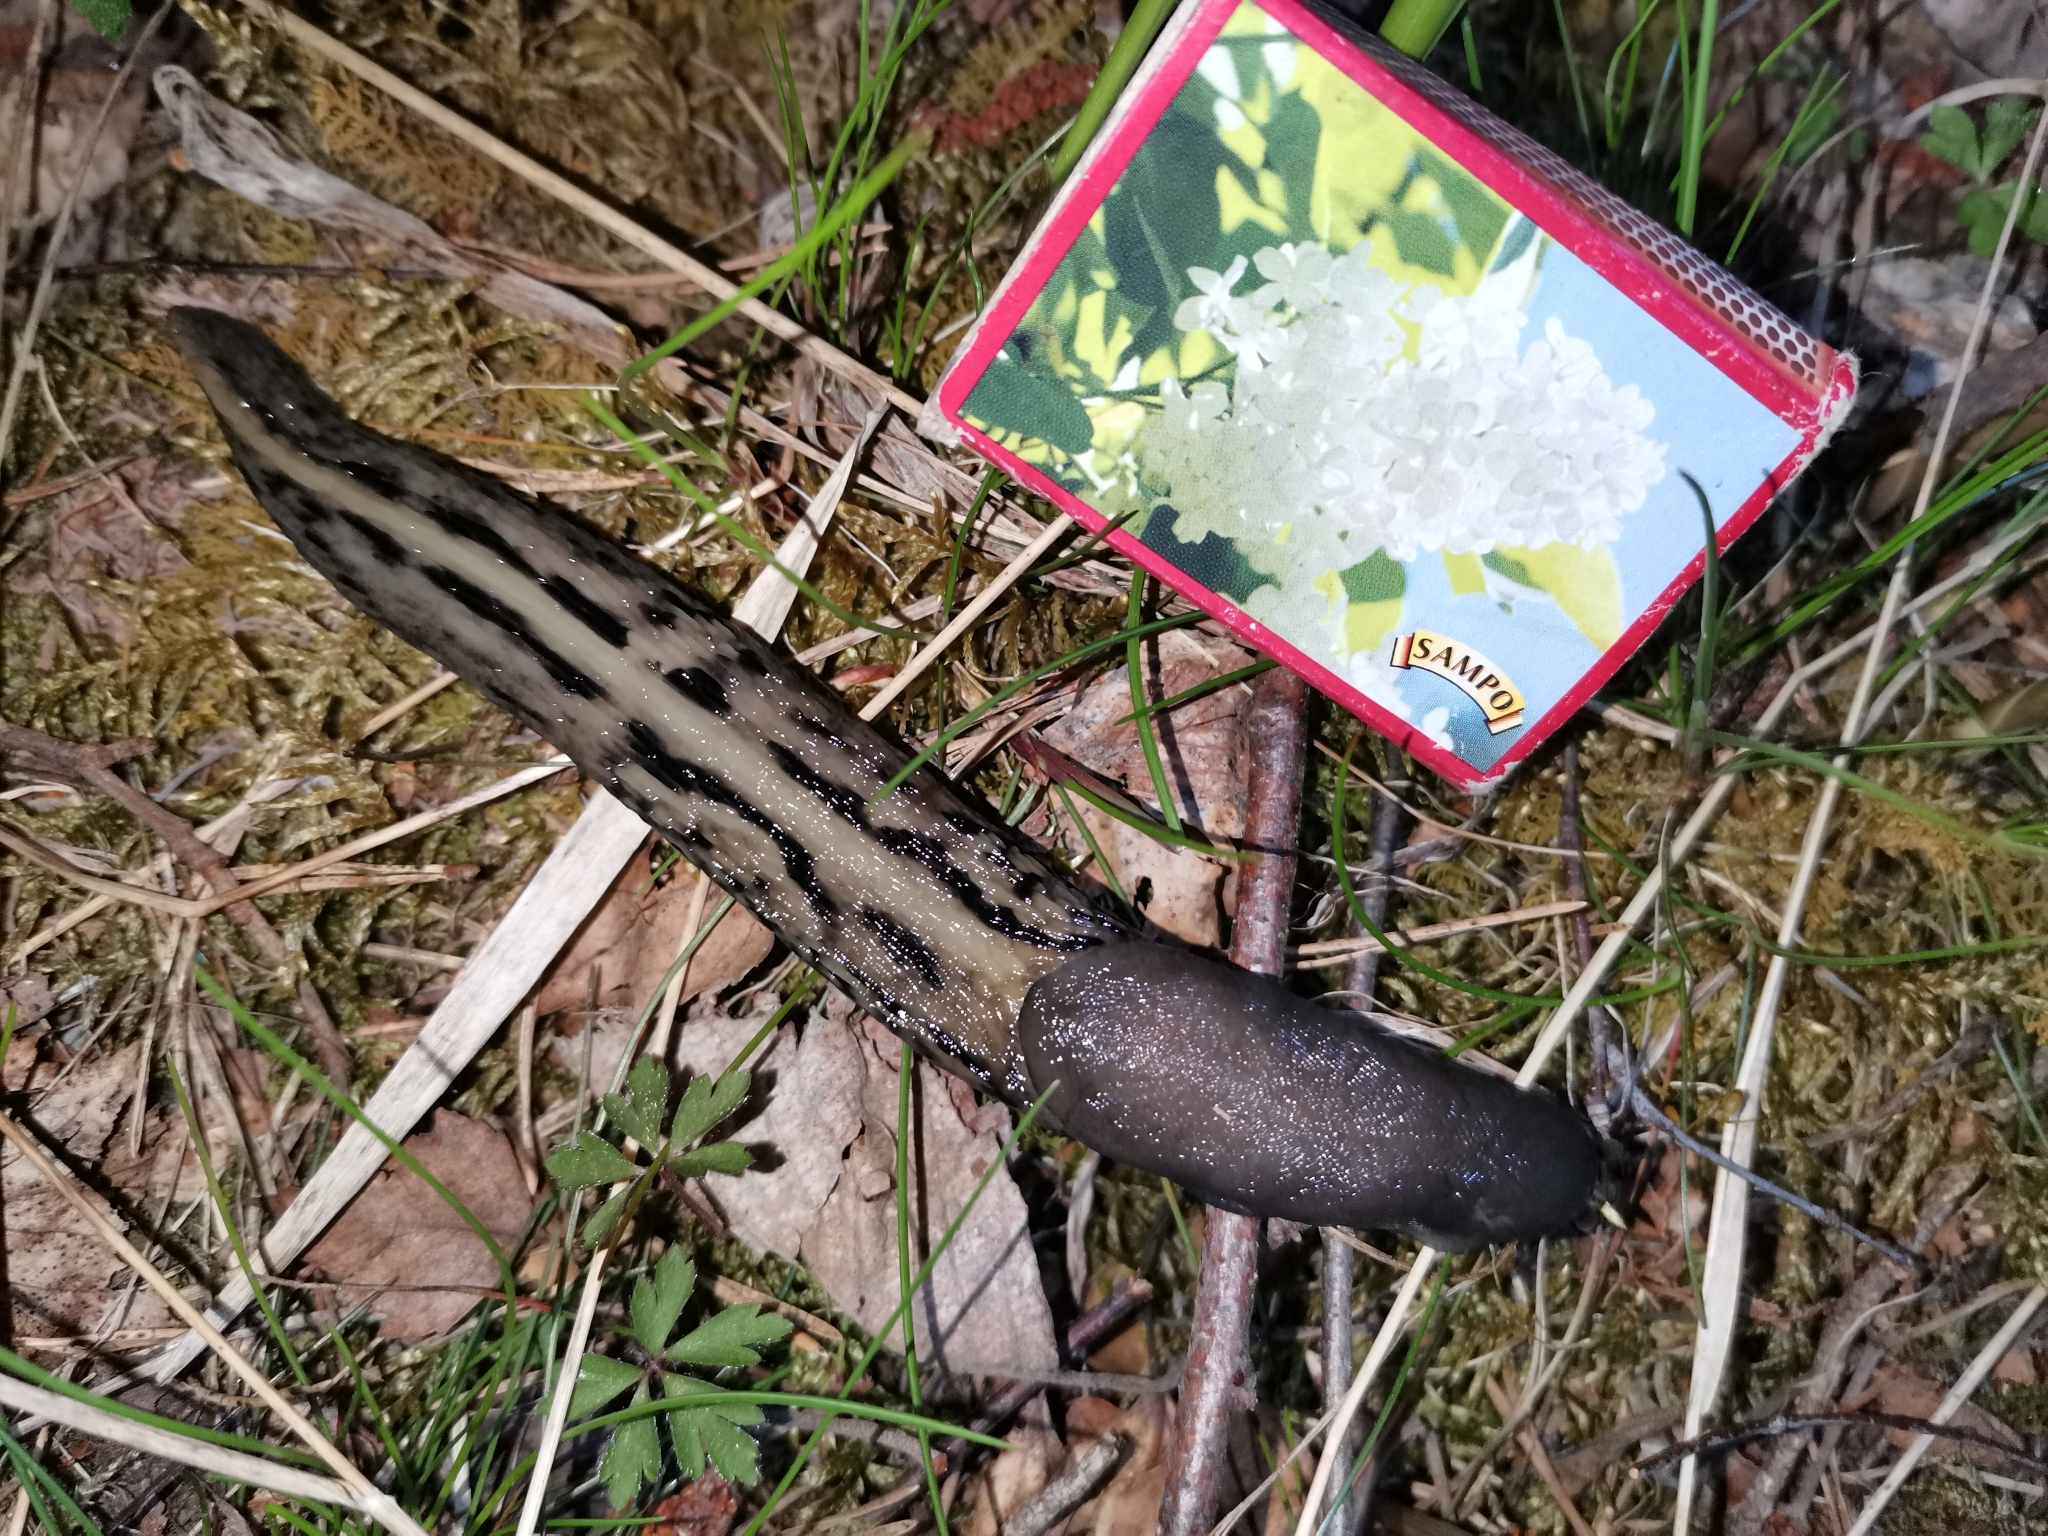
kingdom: Animalia
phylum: Mollusca
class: Gastropoda
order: Stylommatophora
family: Limacidae
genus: Limax
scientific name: Limax cinereoniger
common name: Ash-black slug
